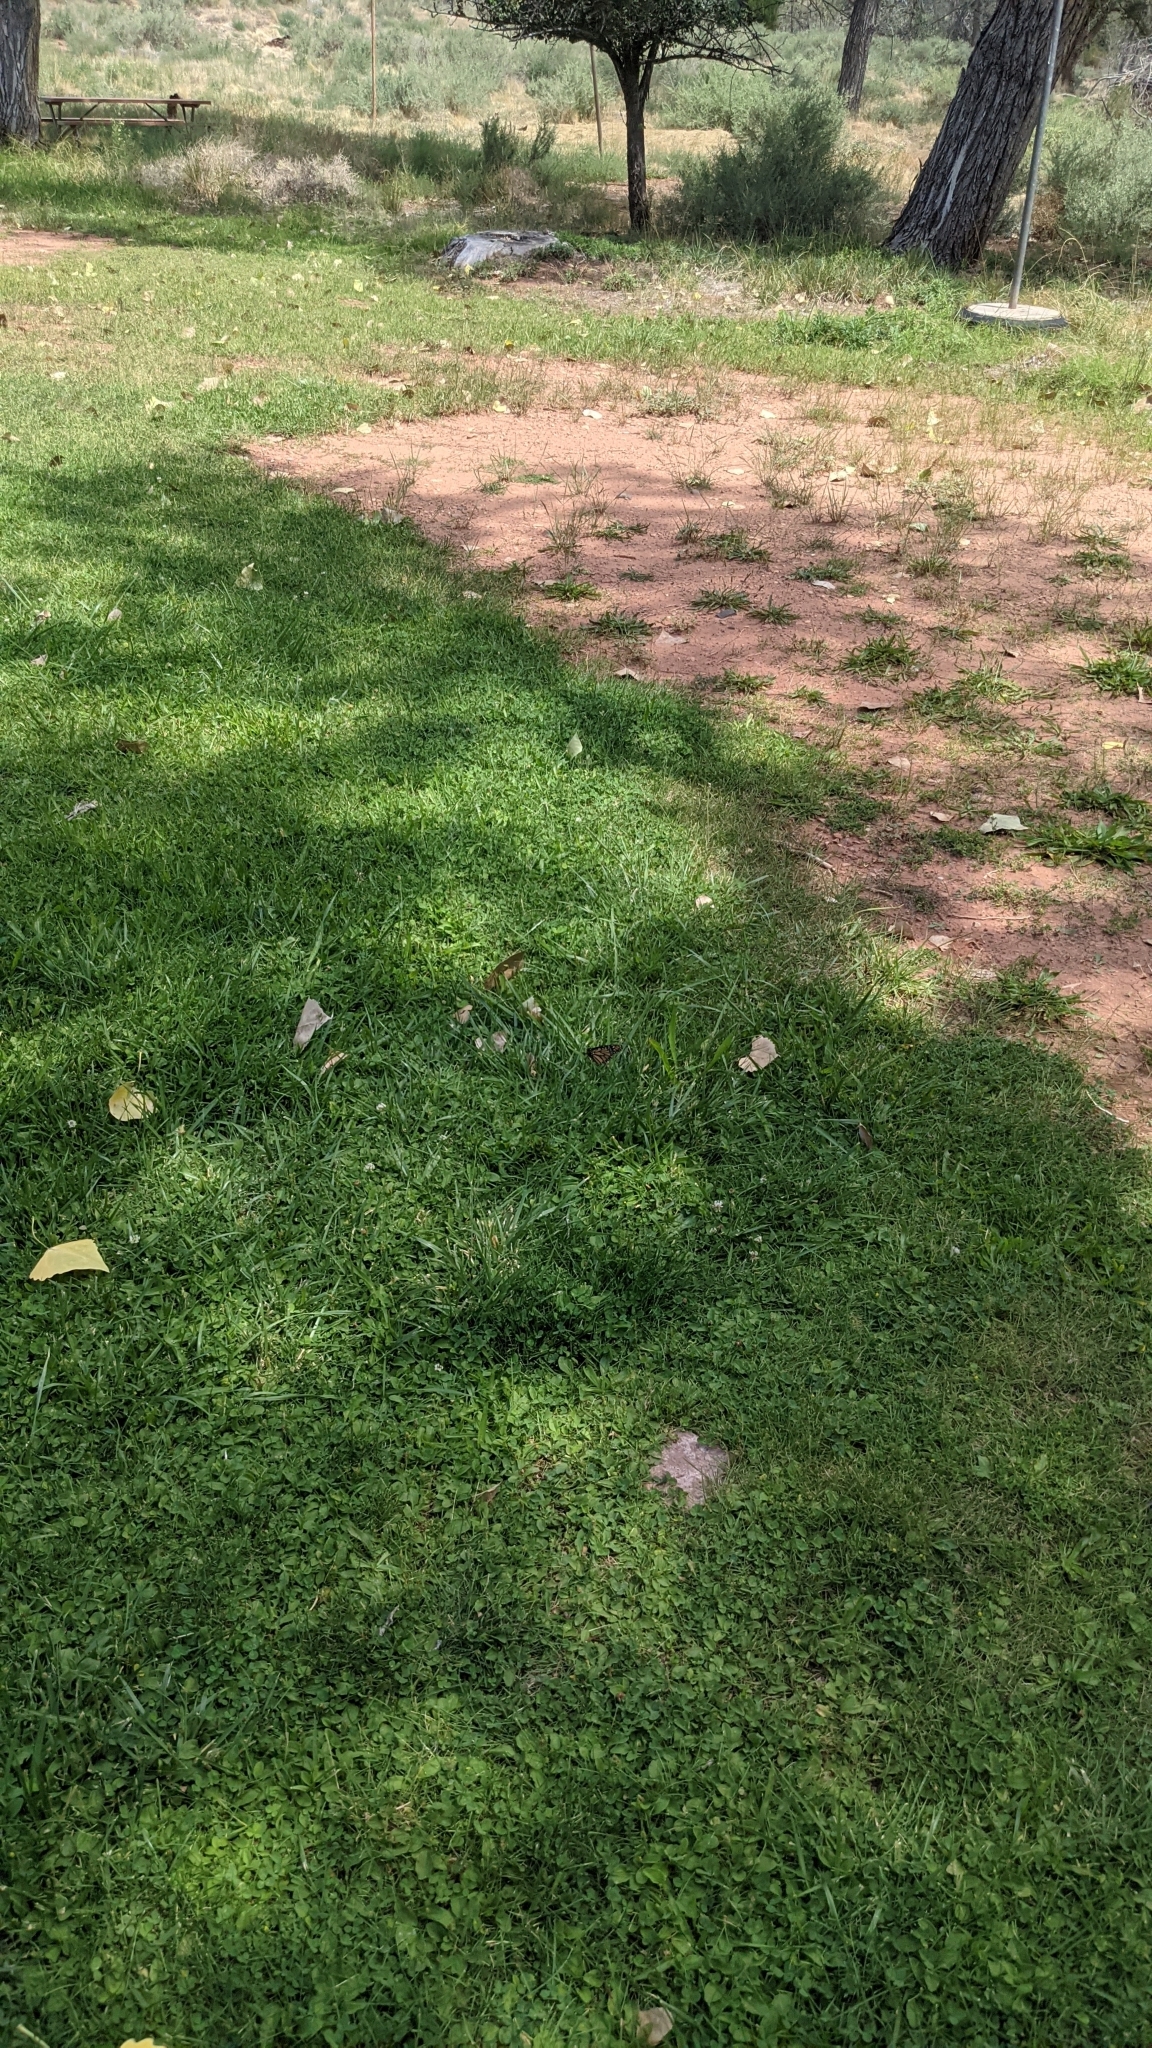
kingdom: Animalia
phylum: Arthropoda
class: Insecta
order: Lepidoptera
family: Nymphalidae
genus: Danaus
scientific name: Danaus plexippus
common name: Monarch
